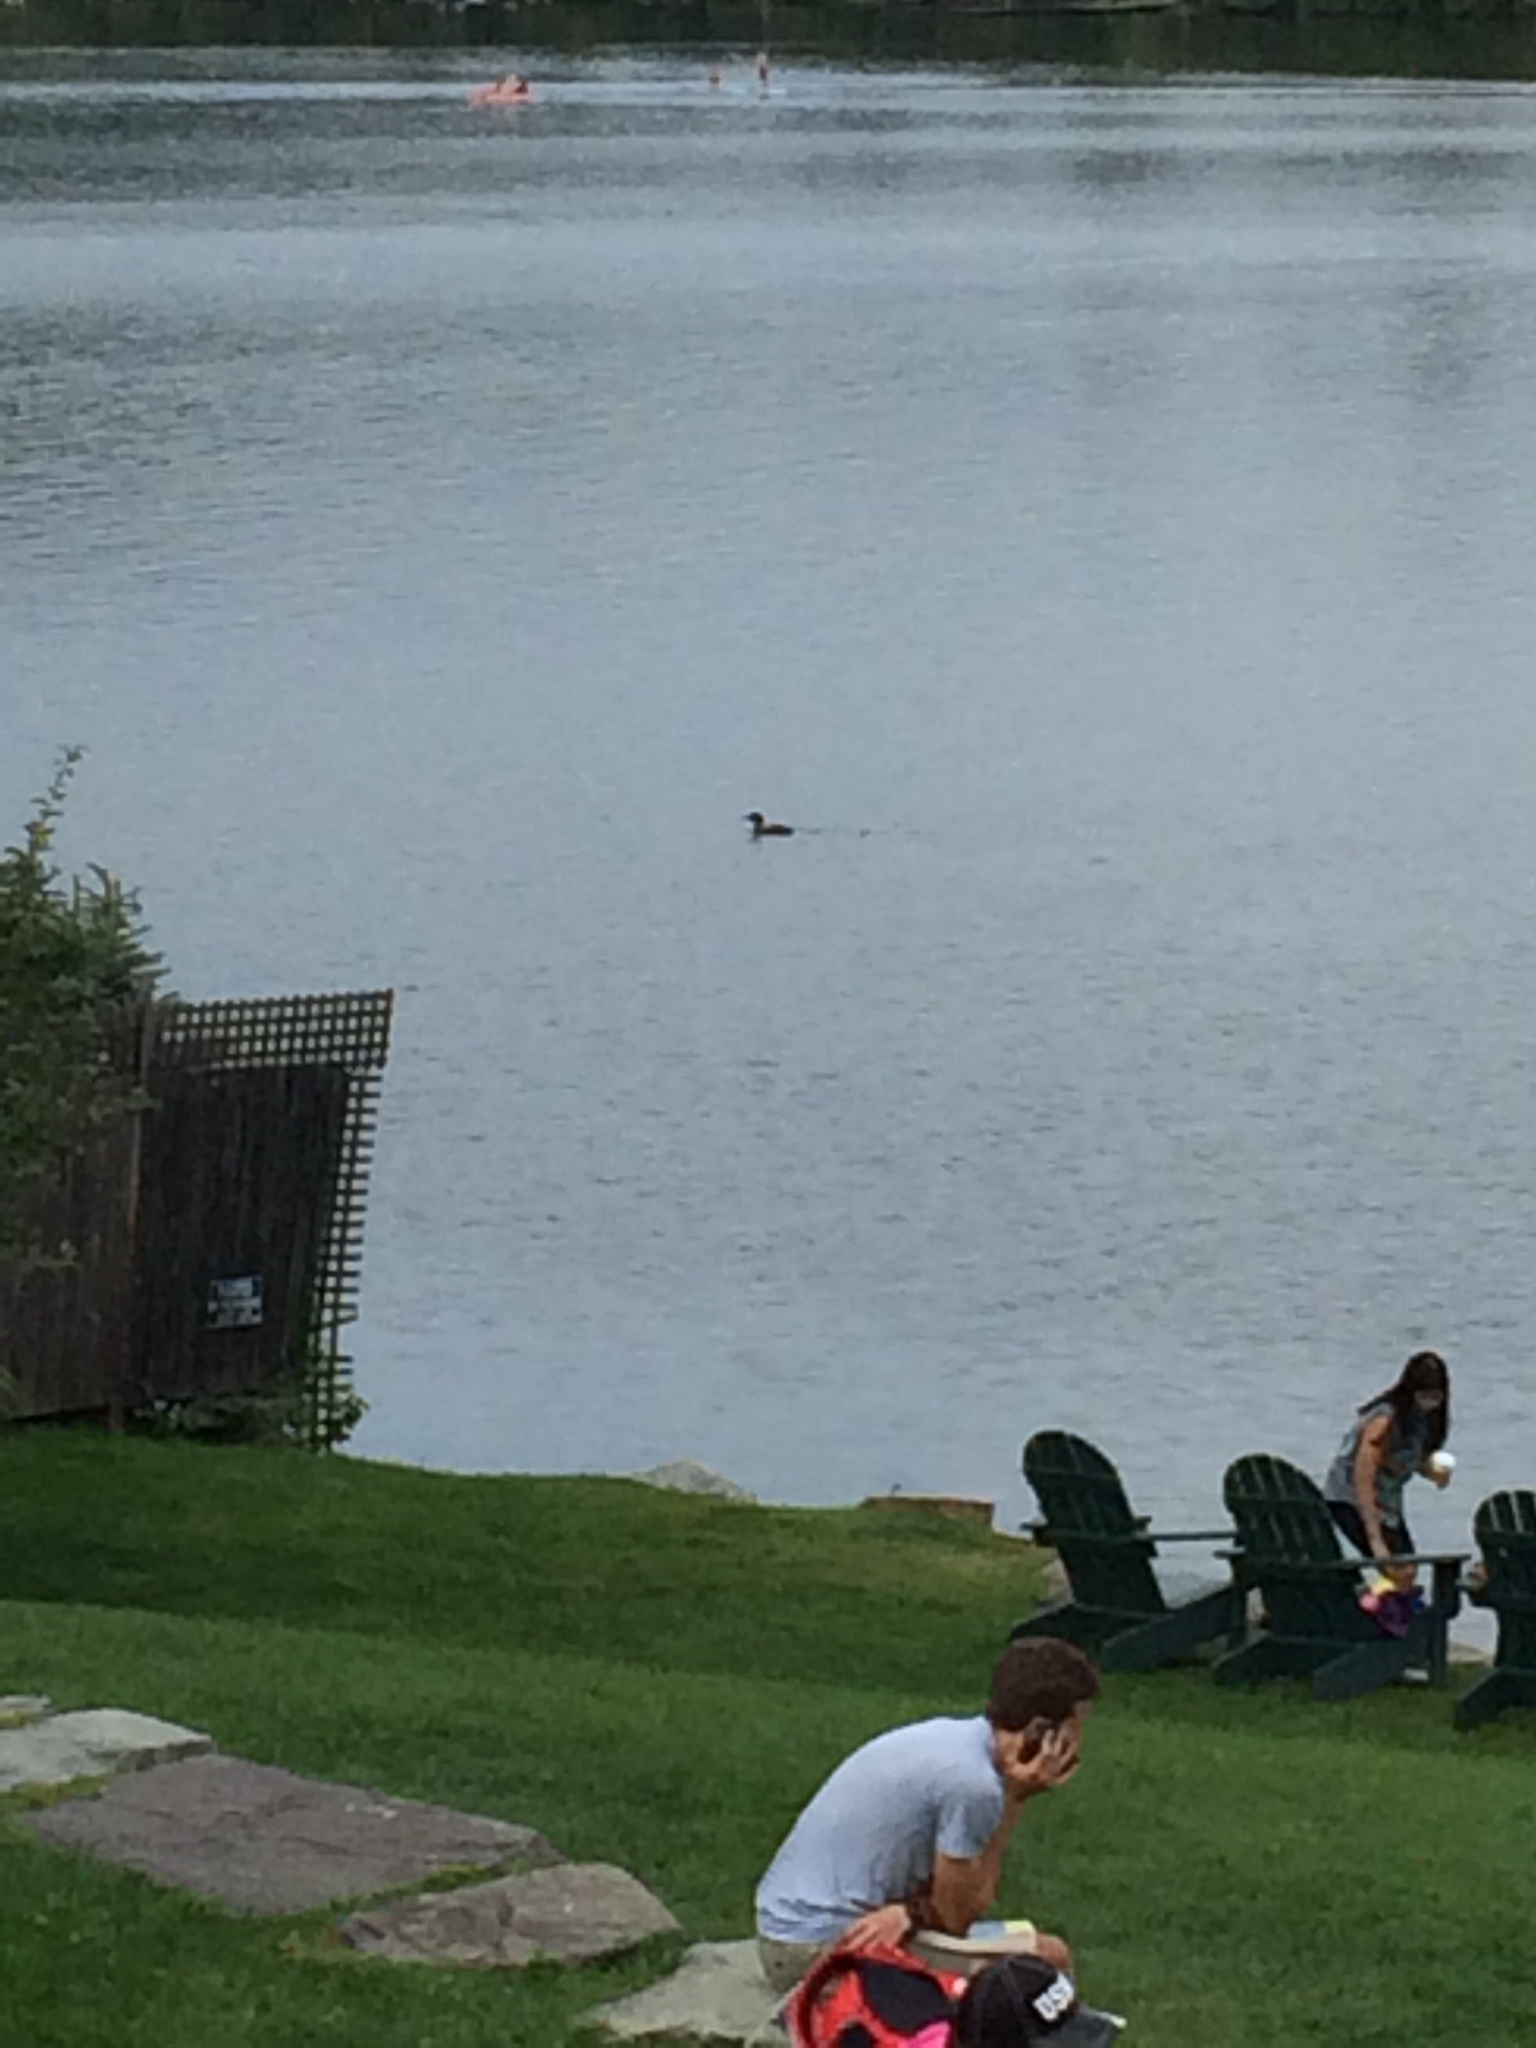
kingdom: Animalia
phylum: Chordata
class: Aves
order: Gaviiformes
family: Gaviidae
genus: Gavia
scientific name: Gavia immer
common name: Common loon
